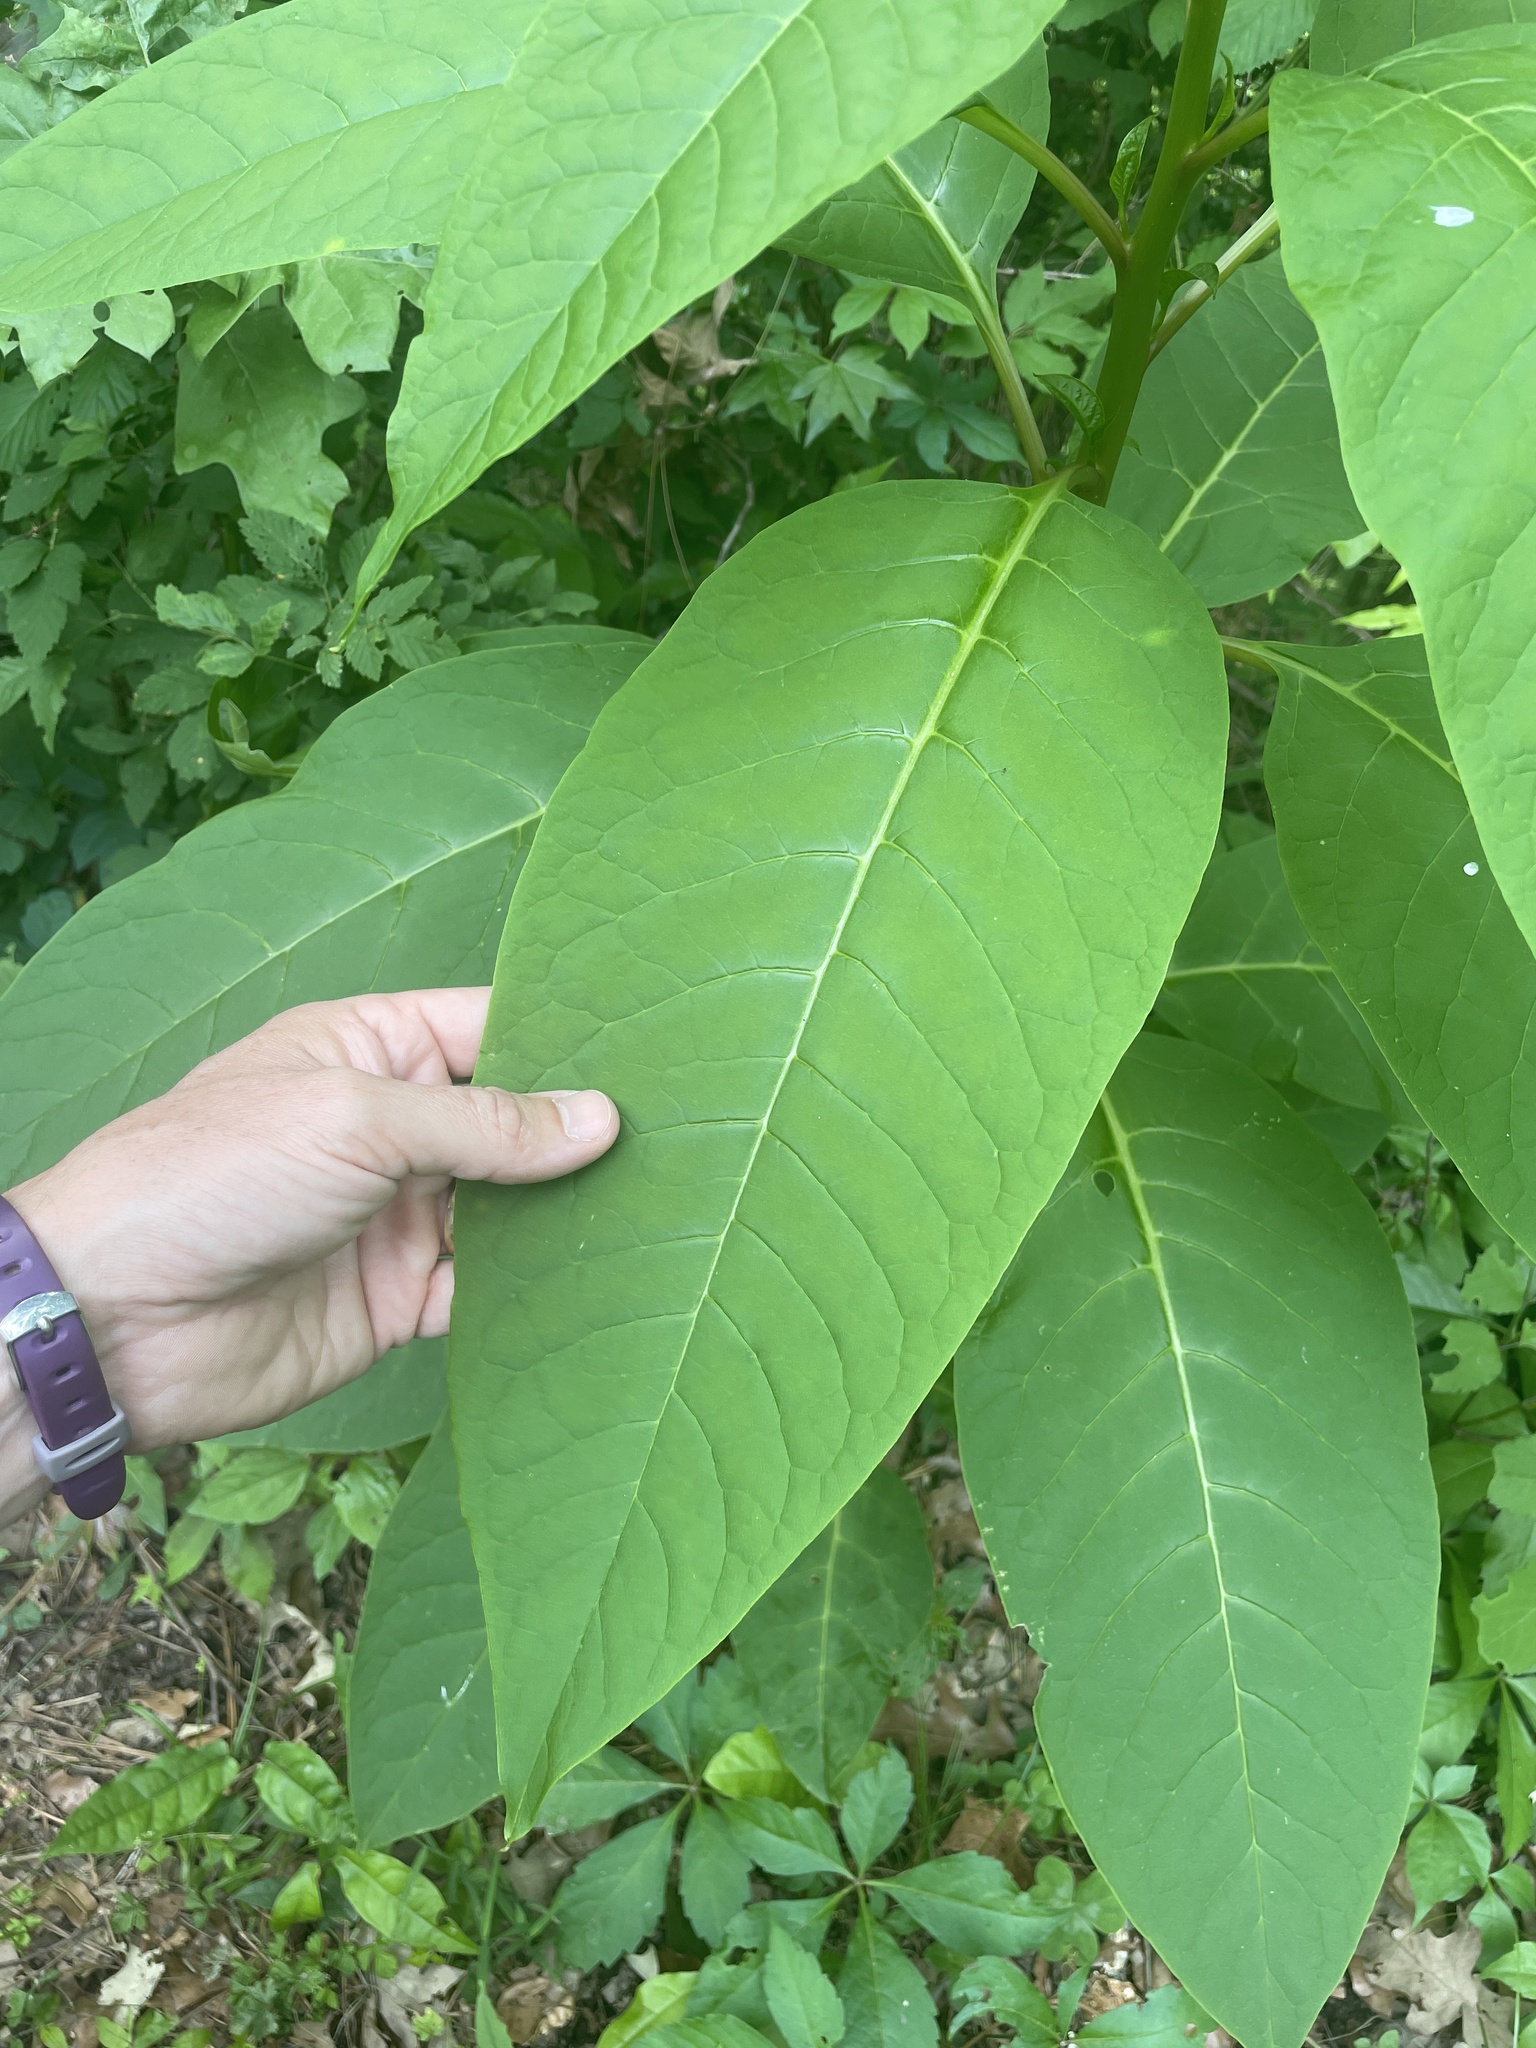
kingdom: Plantae
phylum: Tracheophyta
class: Magnoliopsida
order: Caryophyllales
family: Phytolaccaceae
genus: Phytolacca
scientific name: Phytolacca americana
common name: American pokeweed
